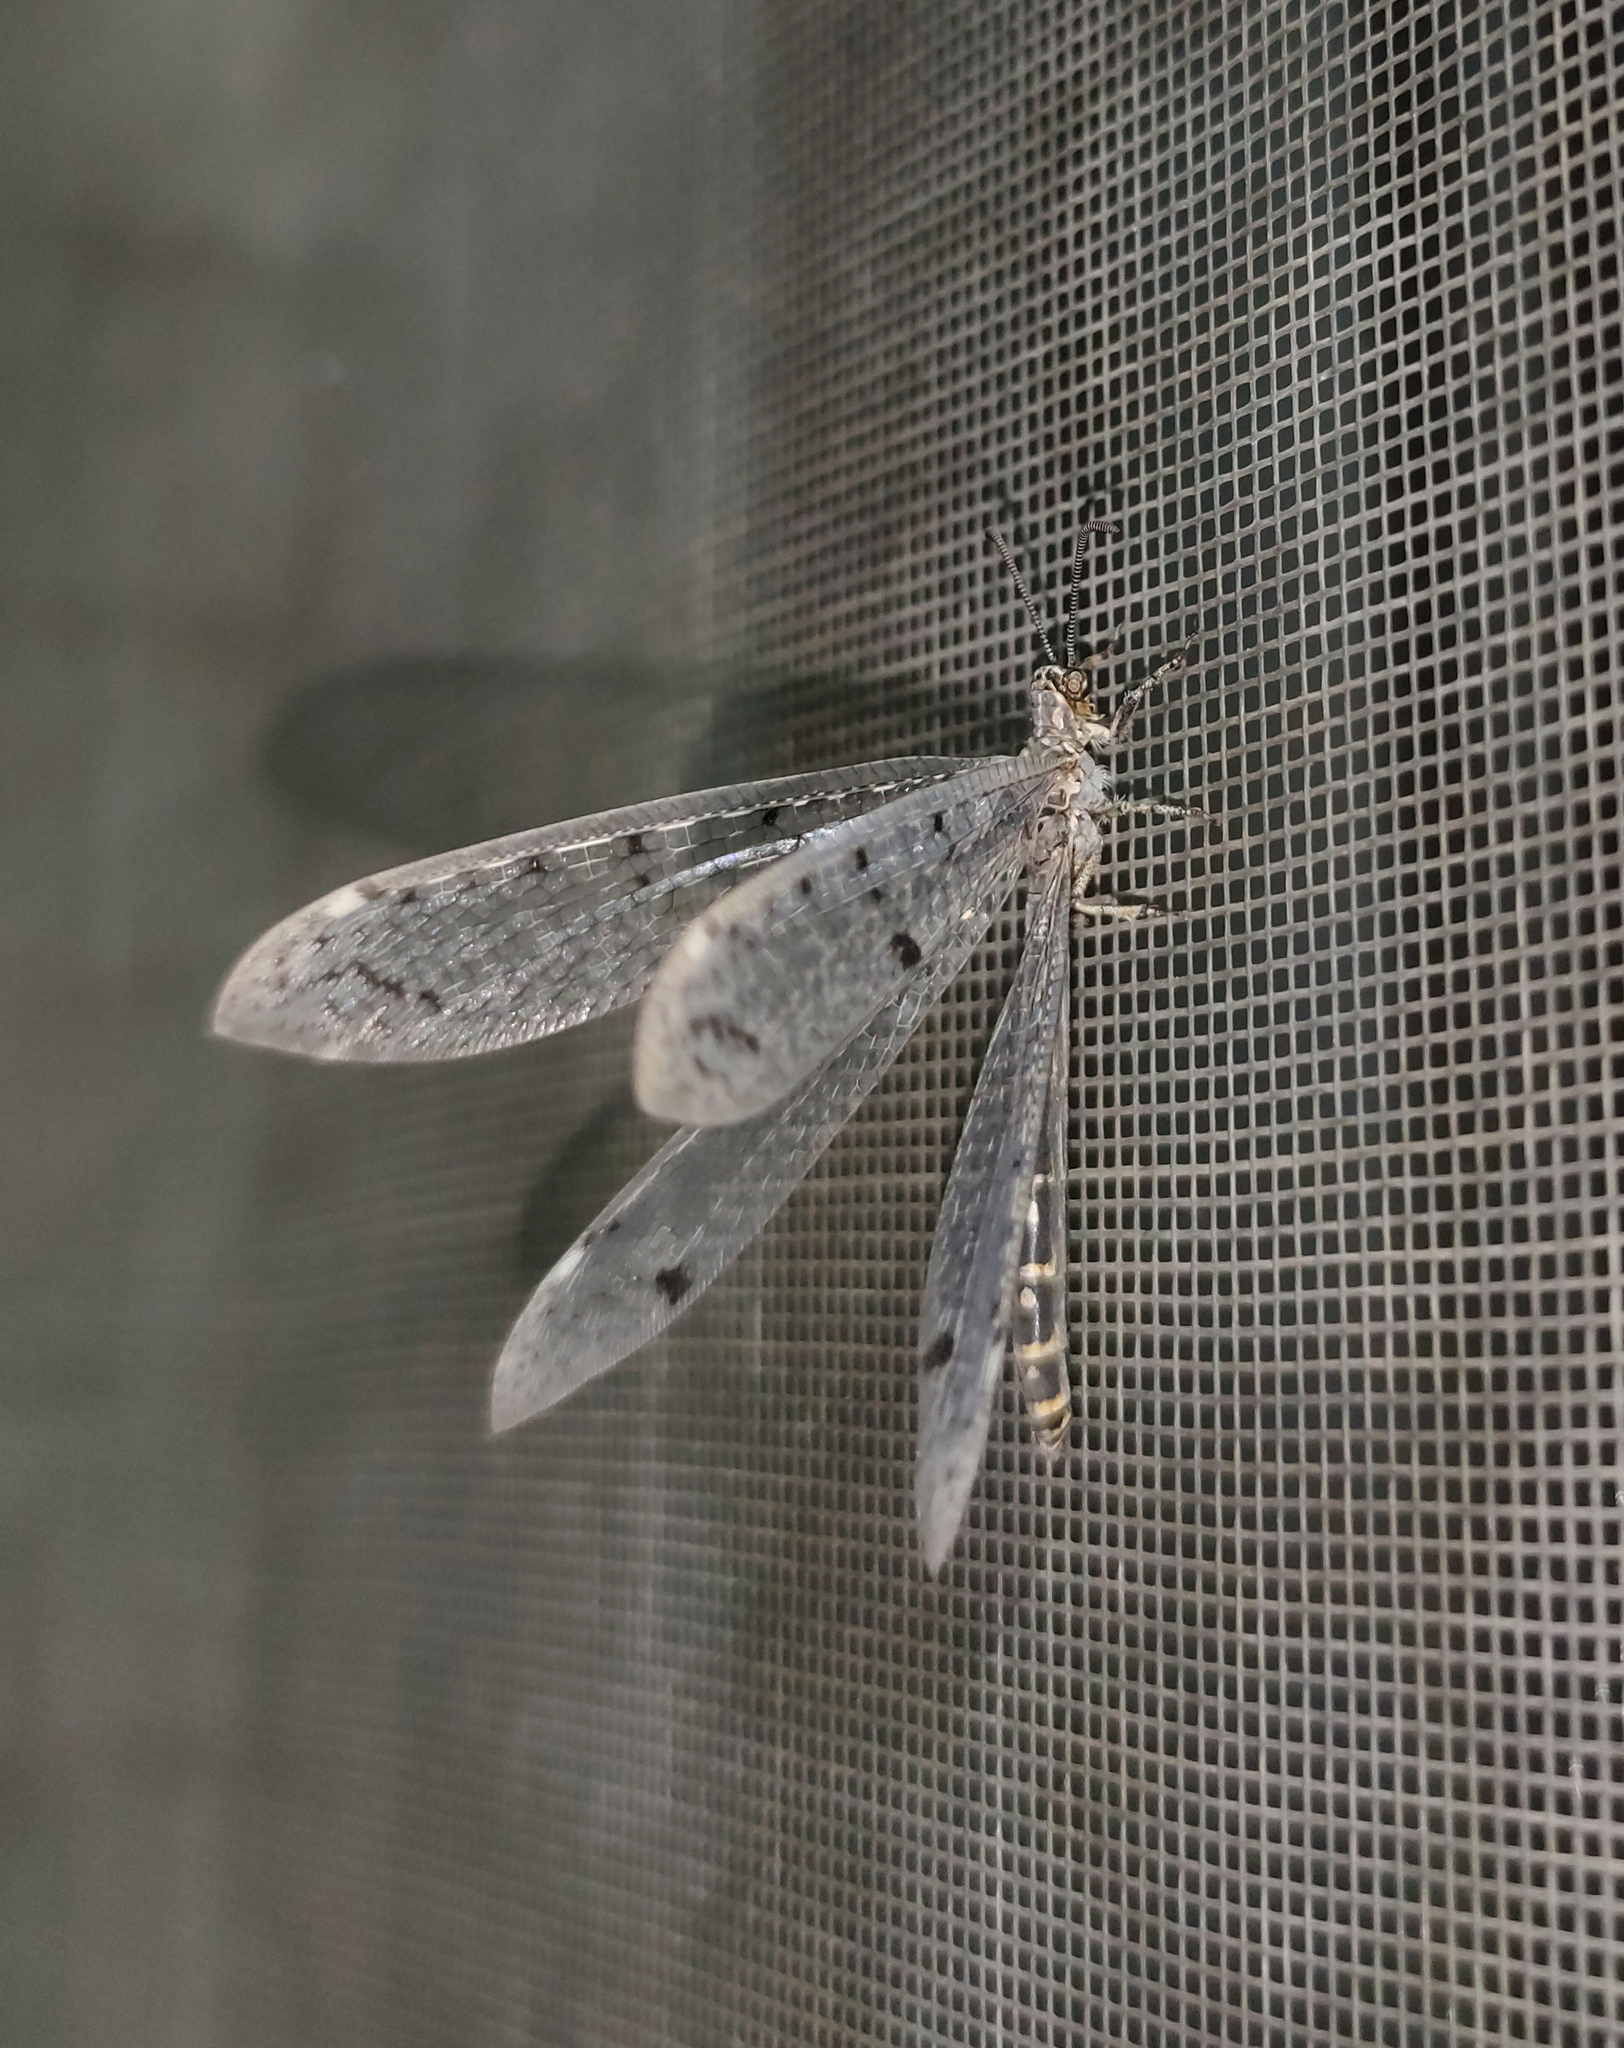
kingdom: Animalia
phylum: Arthropoda
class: Insecta
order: Neuroptera
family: Myrmeleontidae
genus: Distoleon
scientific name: Distoleon tetragrammicus
